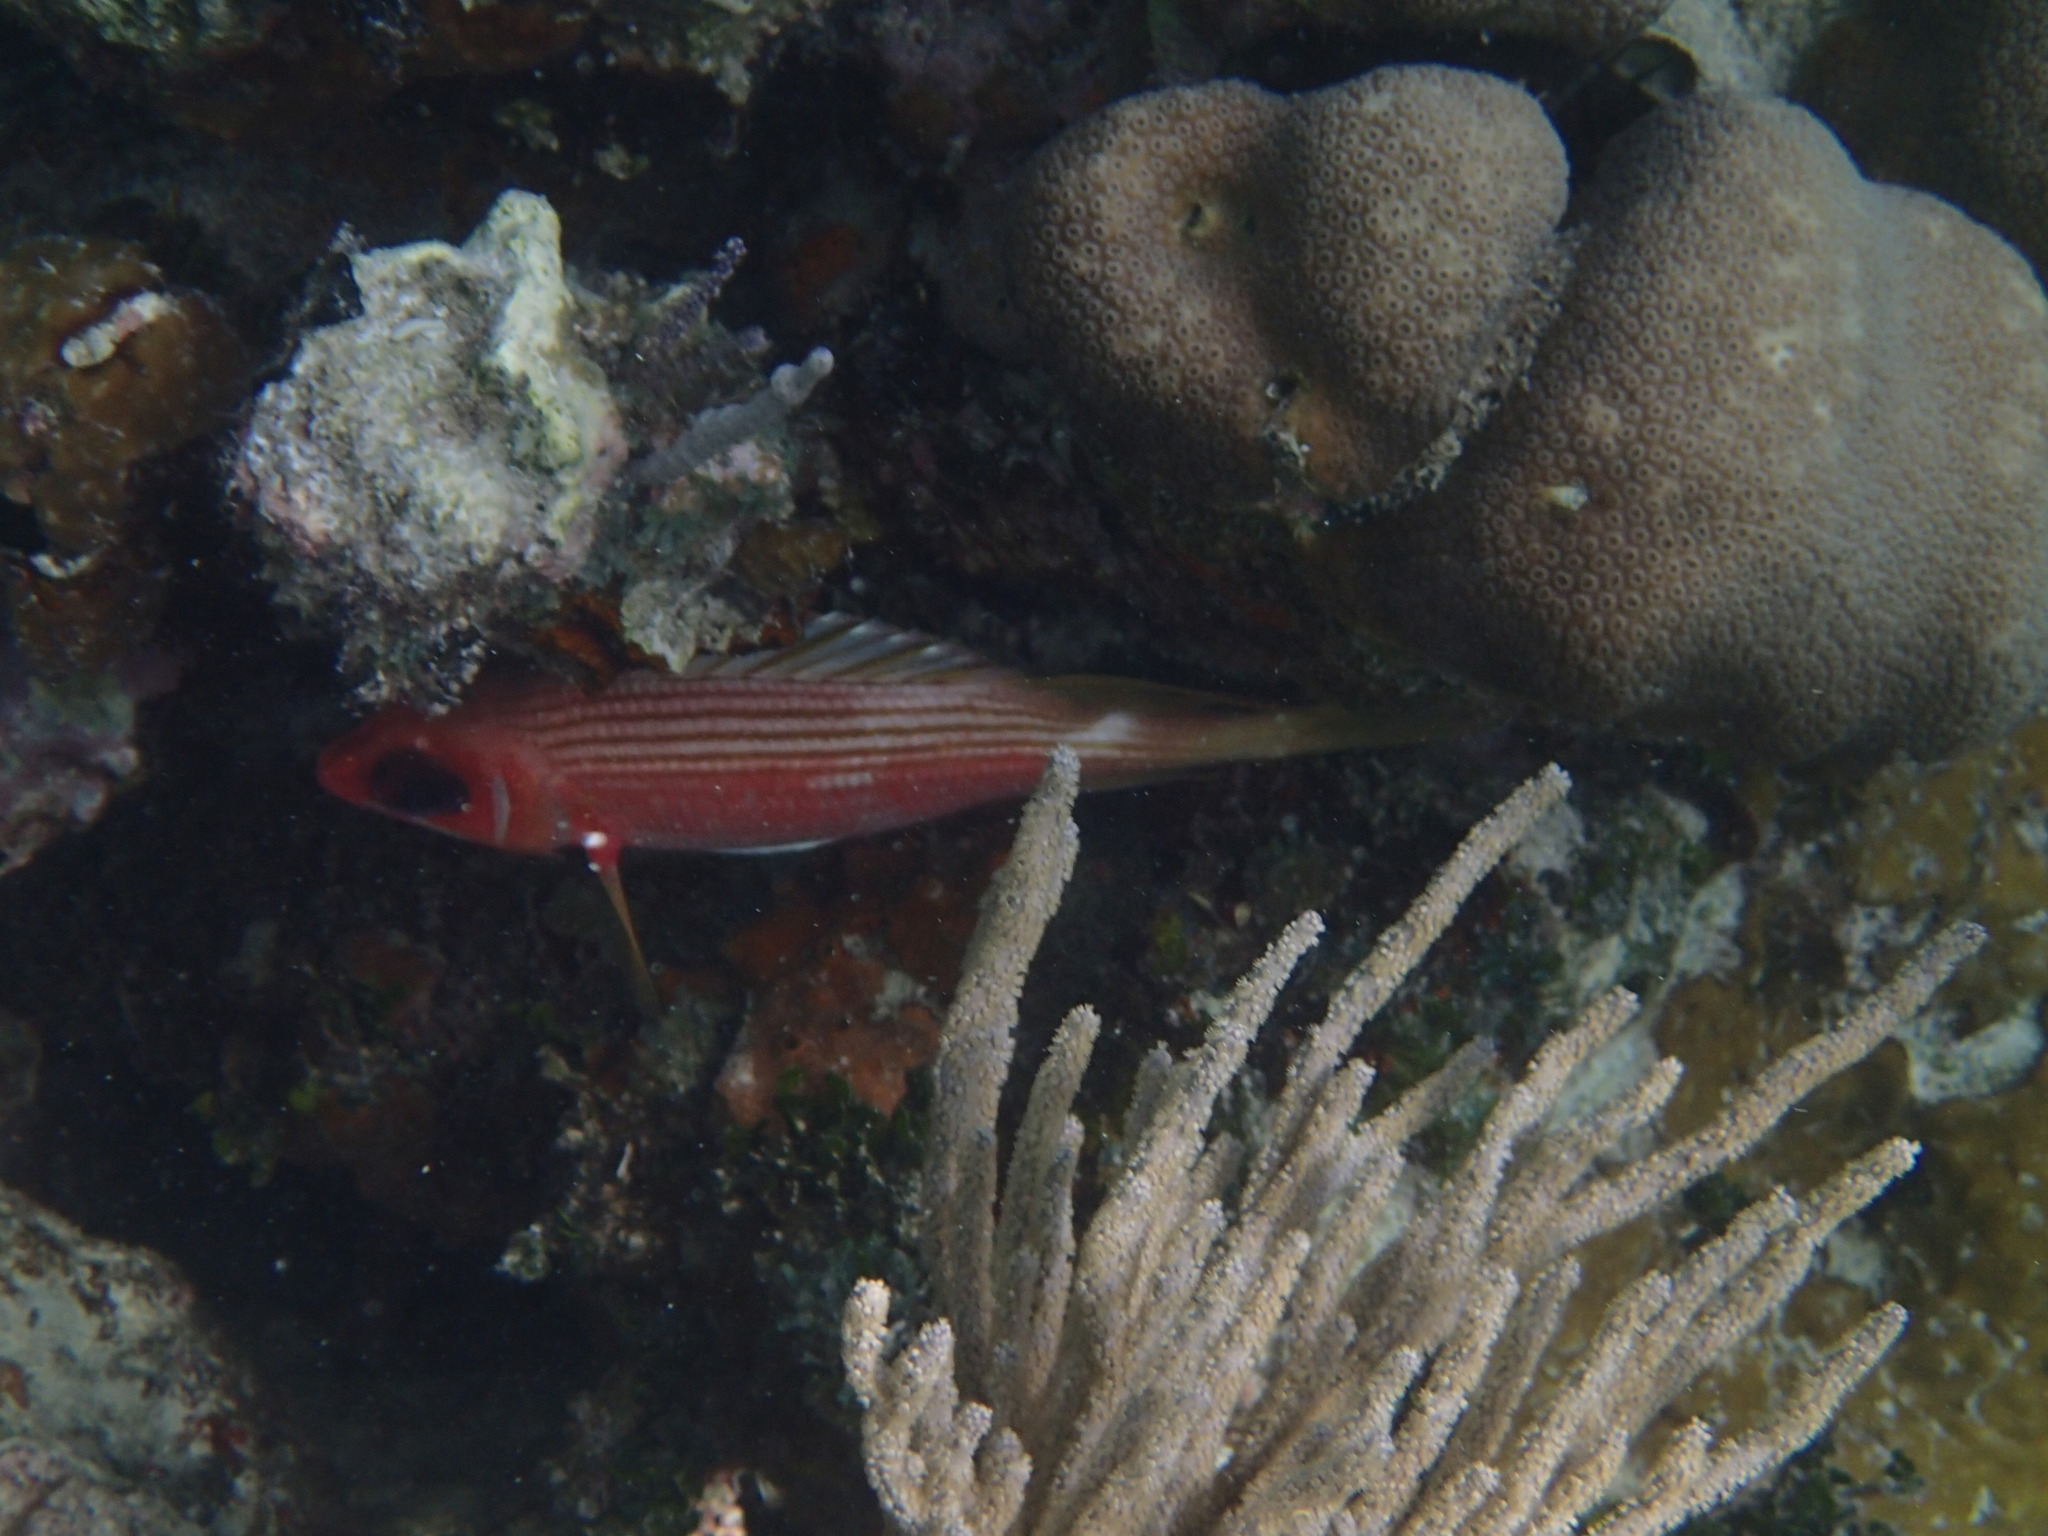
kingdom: Animalia
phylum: Chordata
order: Beryciformes
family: Holocentridae
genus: Holocentrus
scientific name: Holocentrus rufus
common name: Longspine squirrelfish
